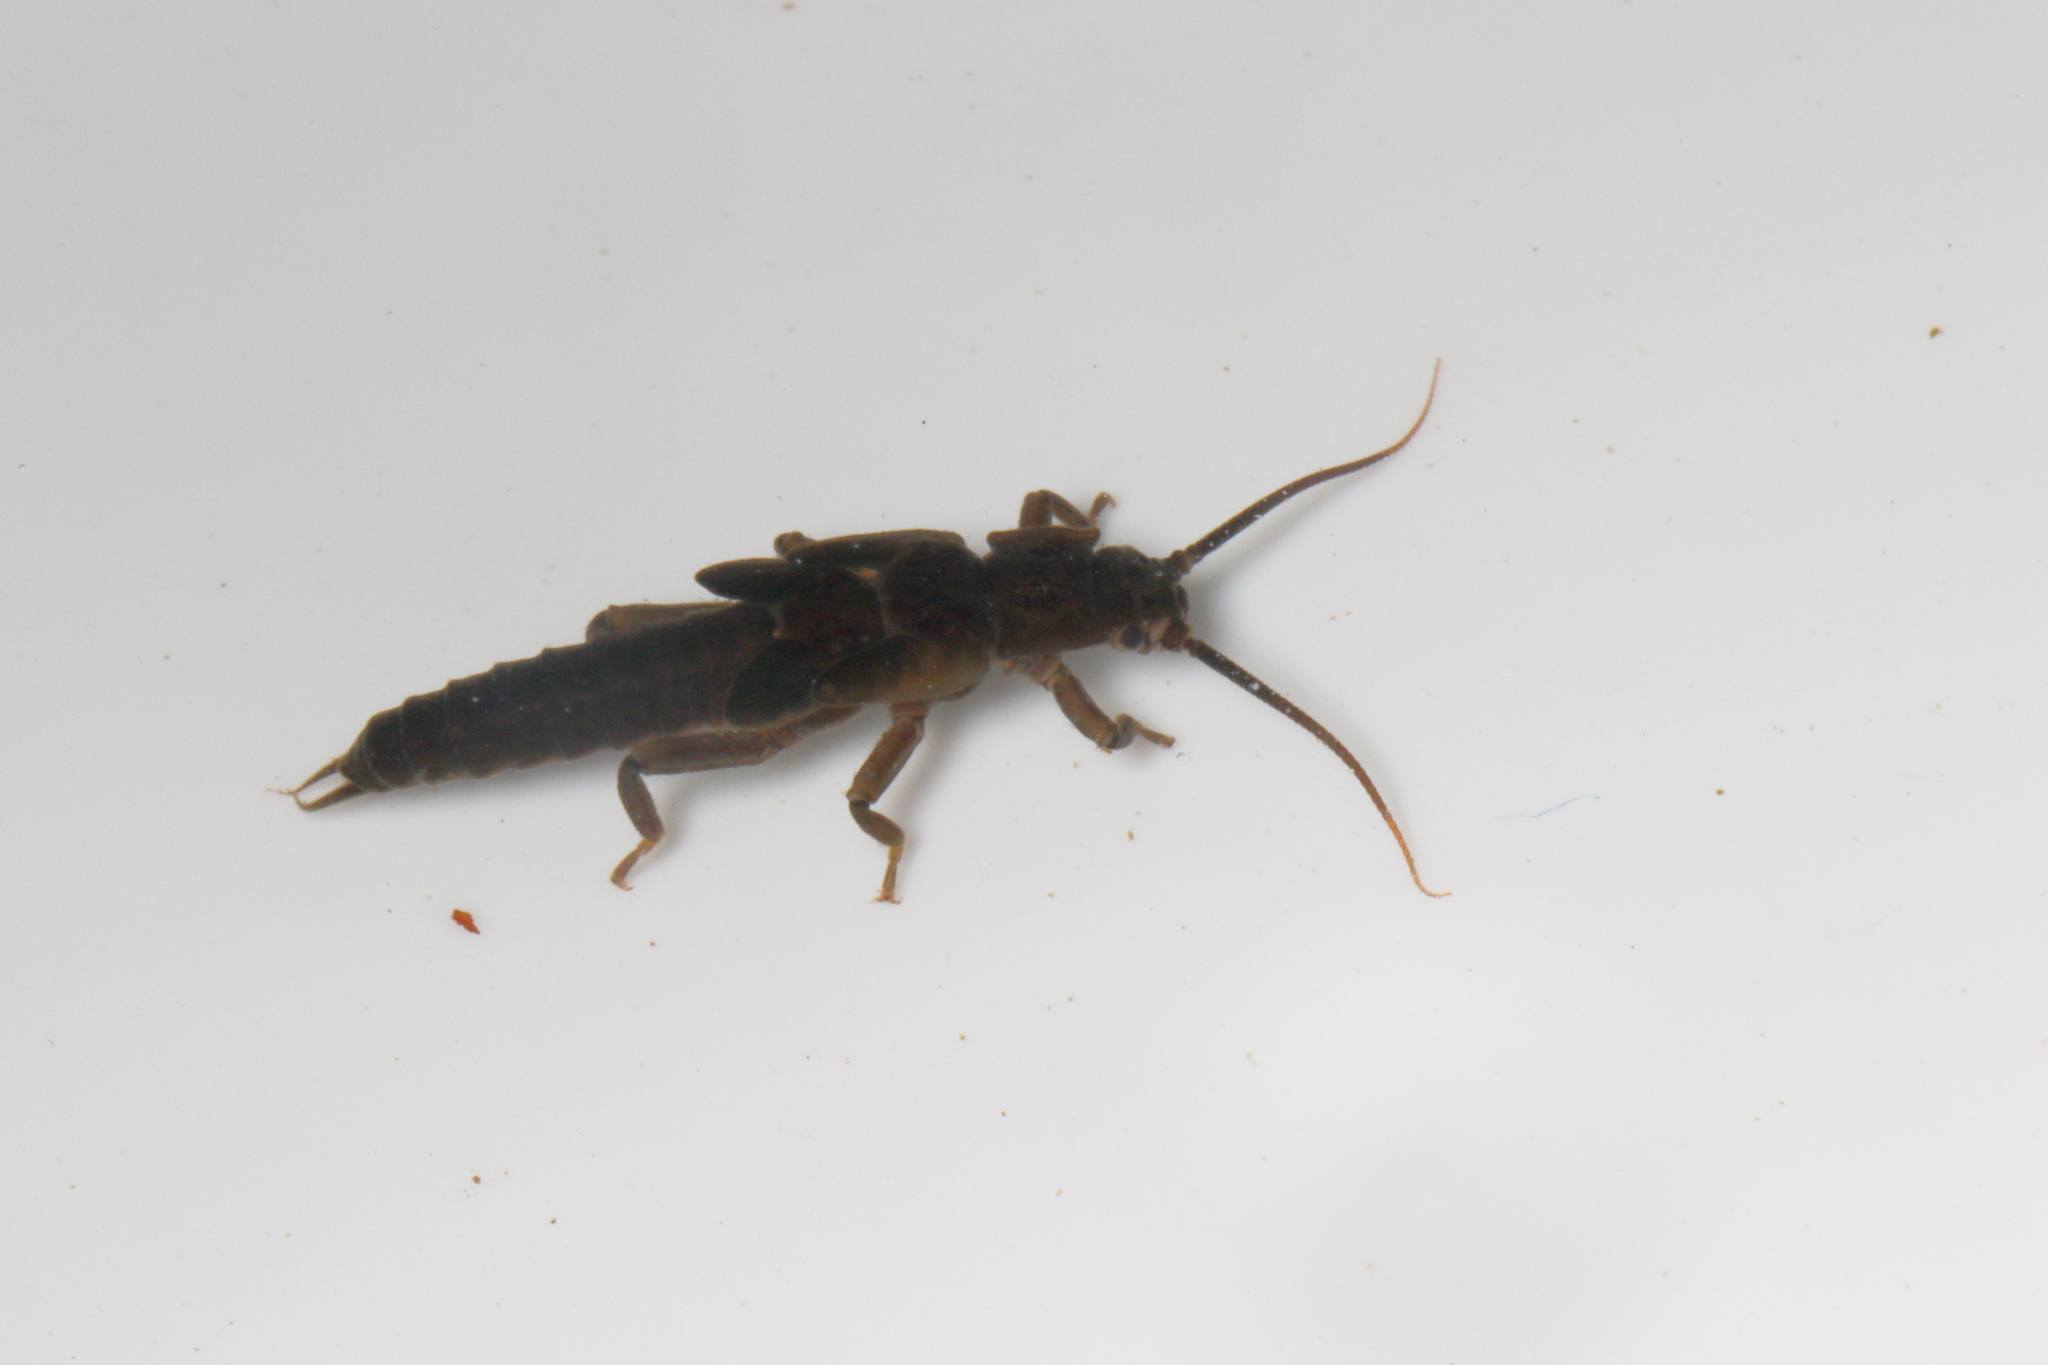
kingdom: Animalia
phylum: Arthropoda
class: Insecta
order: Plecoptera
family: Austroperlidae
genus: Austroperla
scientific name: Austroperla cyrene
